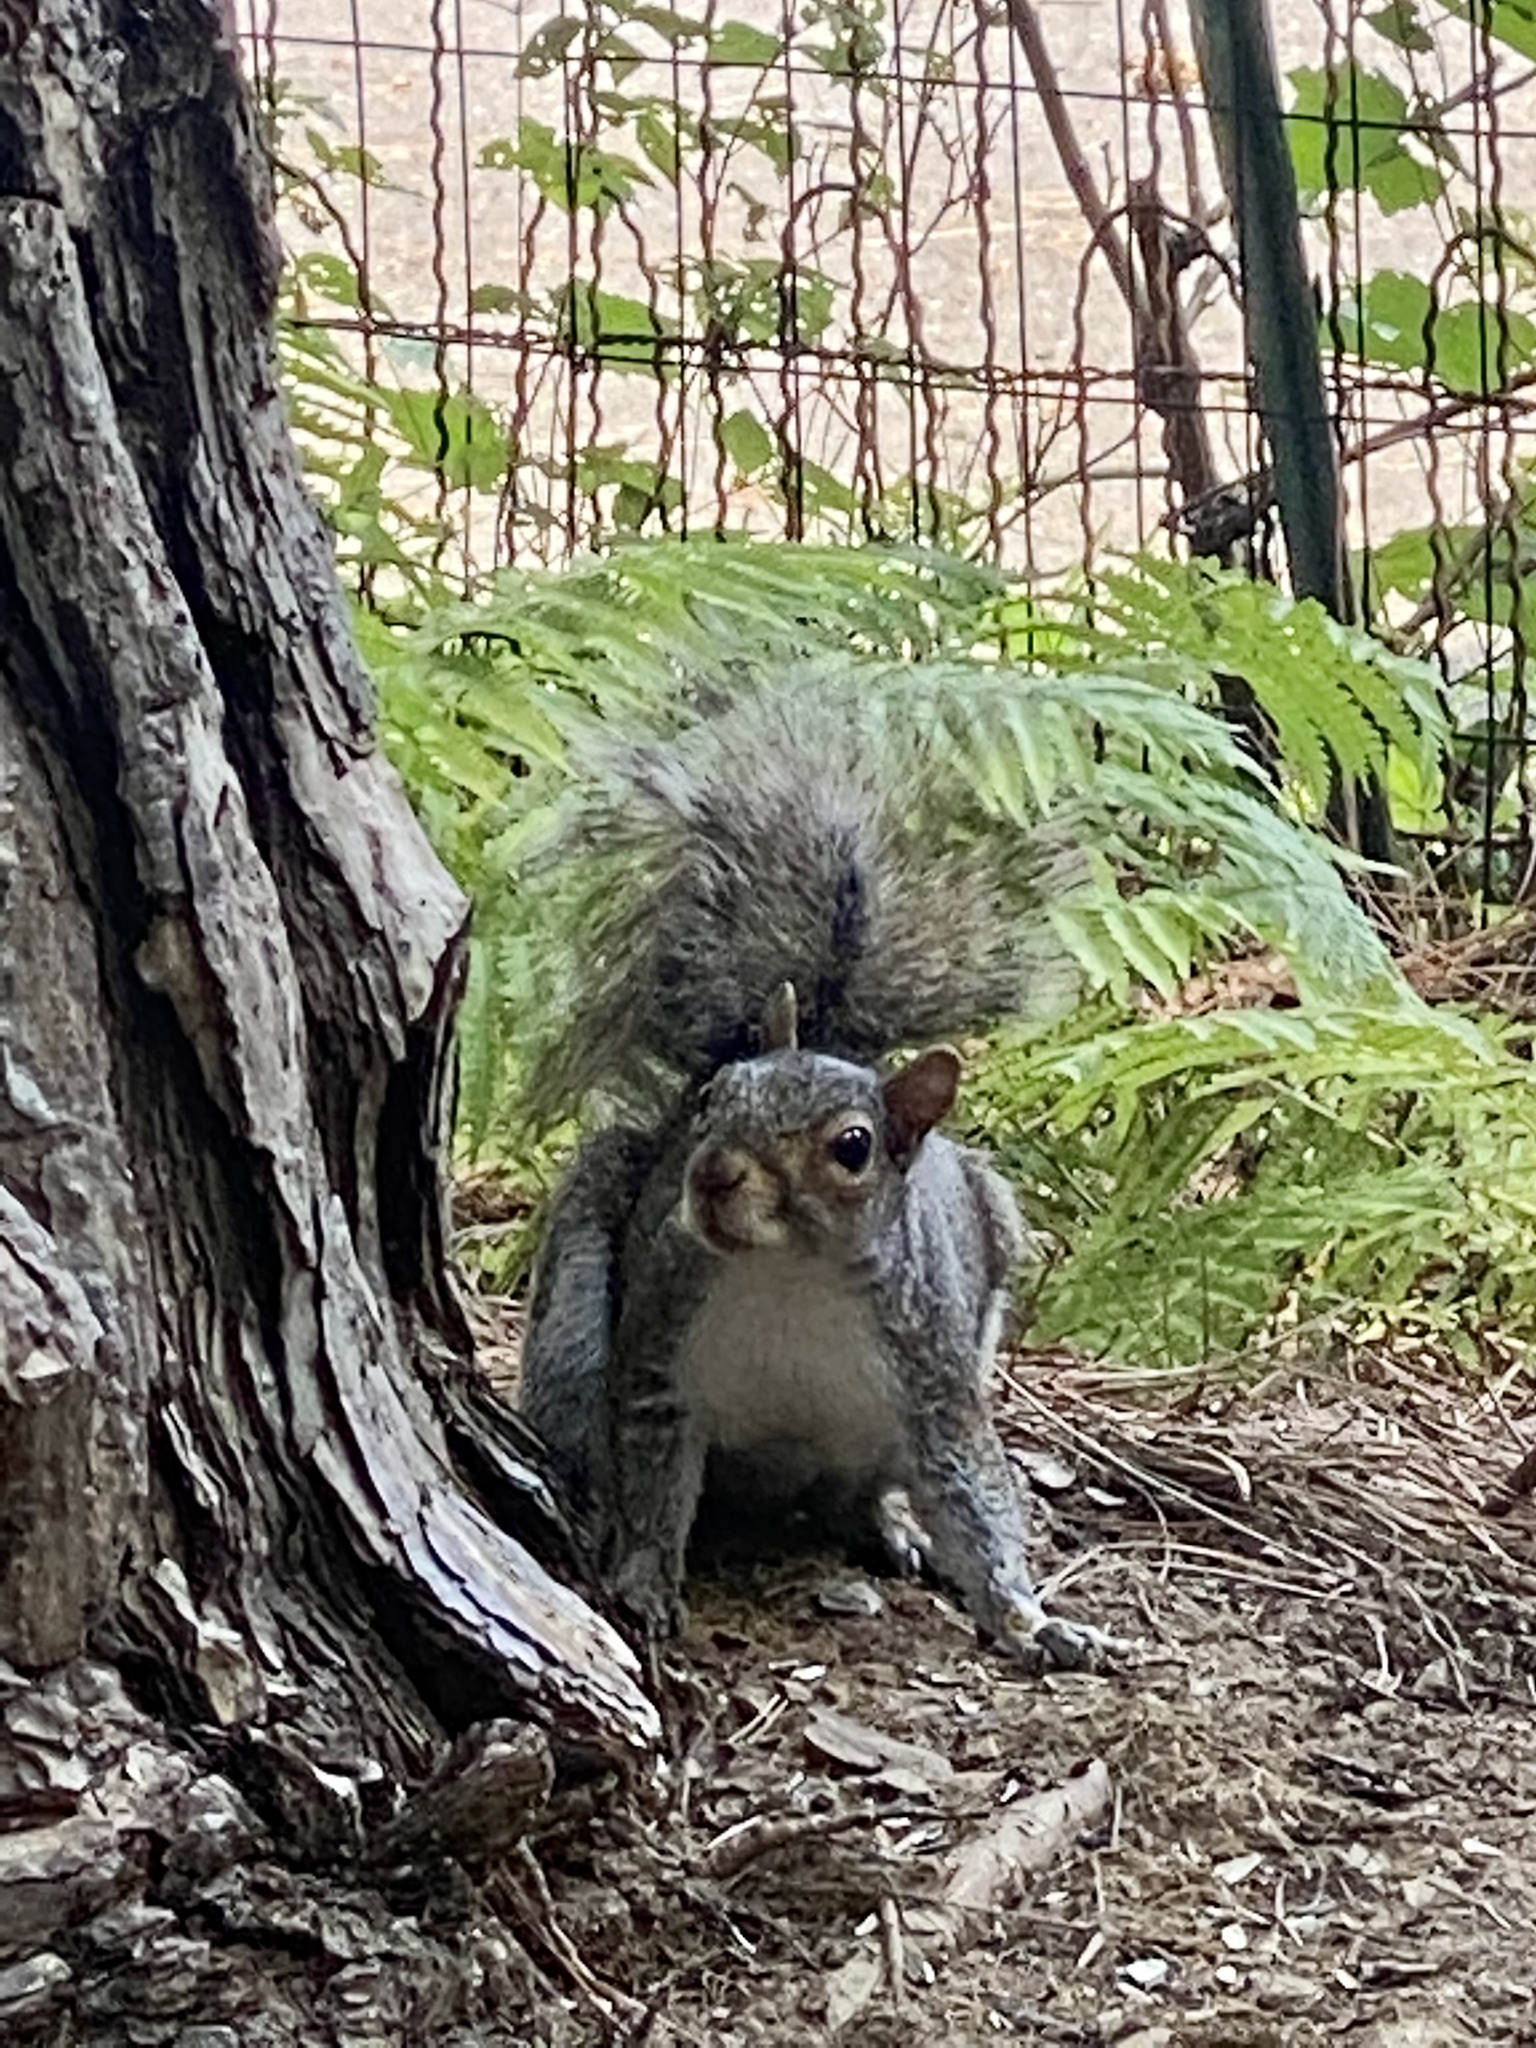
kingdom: Animalia
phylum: Chordata
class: Mammalia
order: Rodentia
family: Sciuridae
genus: Sciurus
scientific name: Sciurus carolinensis
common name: Eastern gray squirrel
